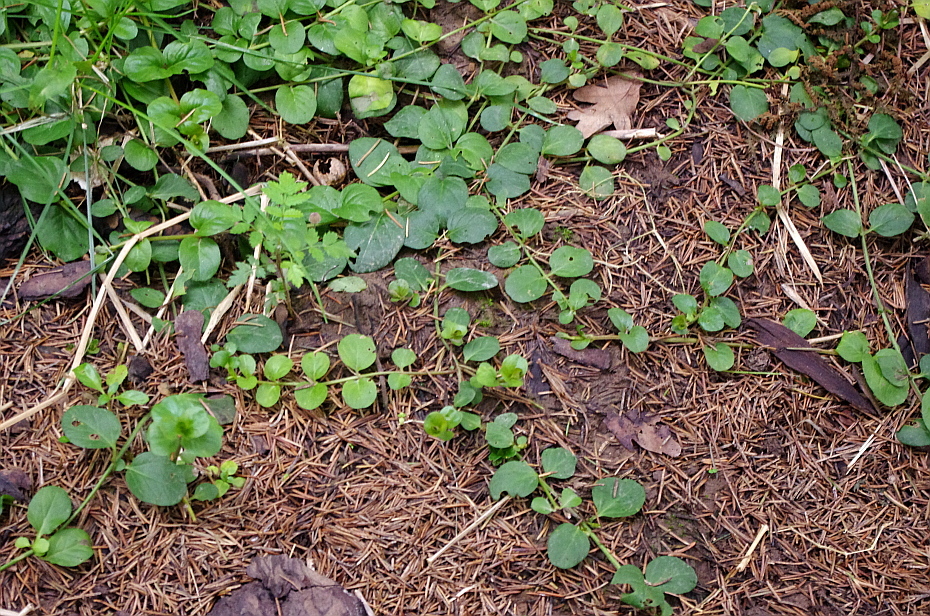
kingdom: Plantae
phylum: Tracheophyta
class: Magnoliopsida
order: Ericales
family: Primulaceae
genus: Lysimachia
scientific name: Lysimachia nummularia
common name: Moneywort
